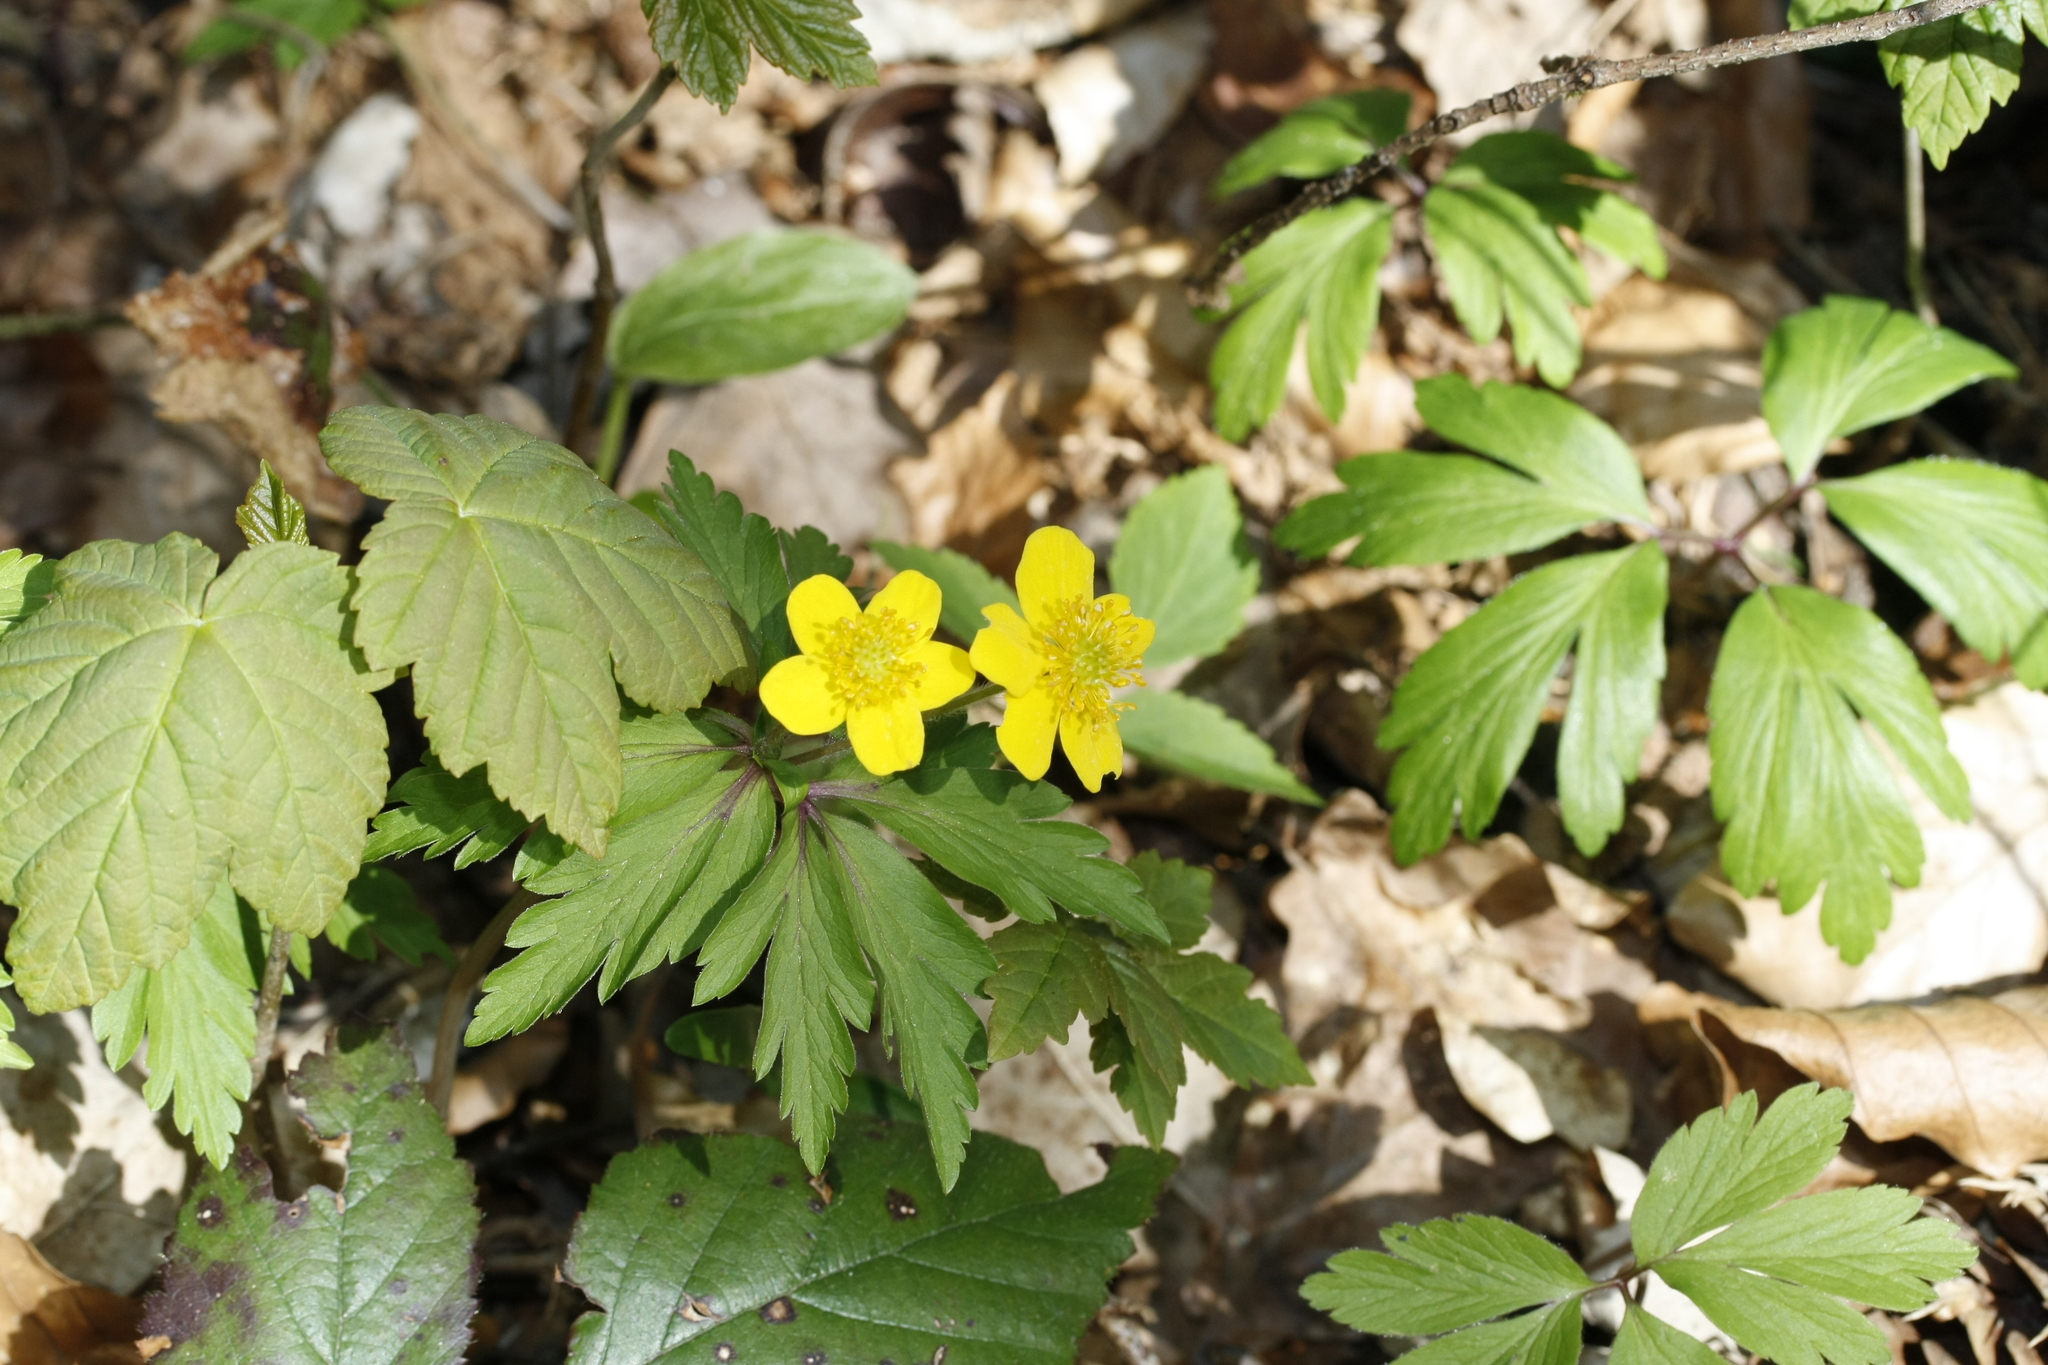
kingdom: Plantae
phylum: Tracheophyta
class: Magnoliopsida
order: Ranunculales
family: Ranunculaceae
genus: Anemone
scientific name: Anemone ranunculoides
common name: Yellow anemone
